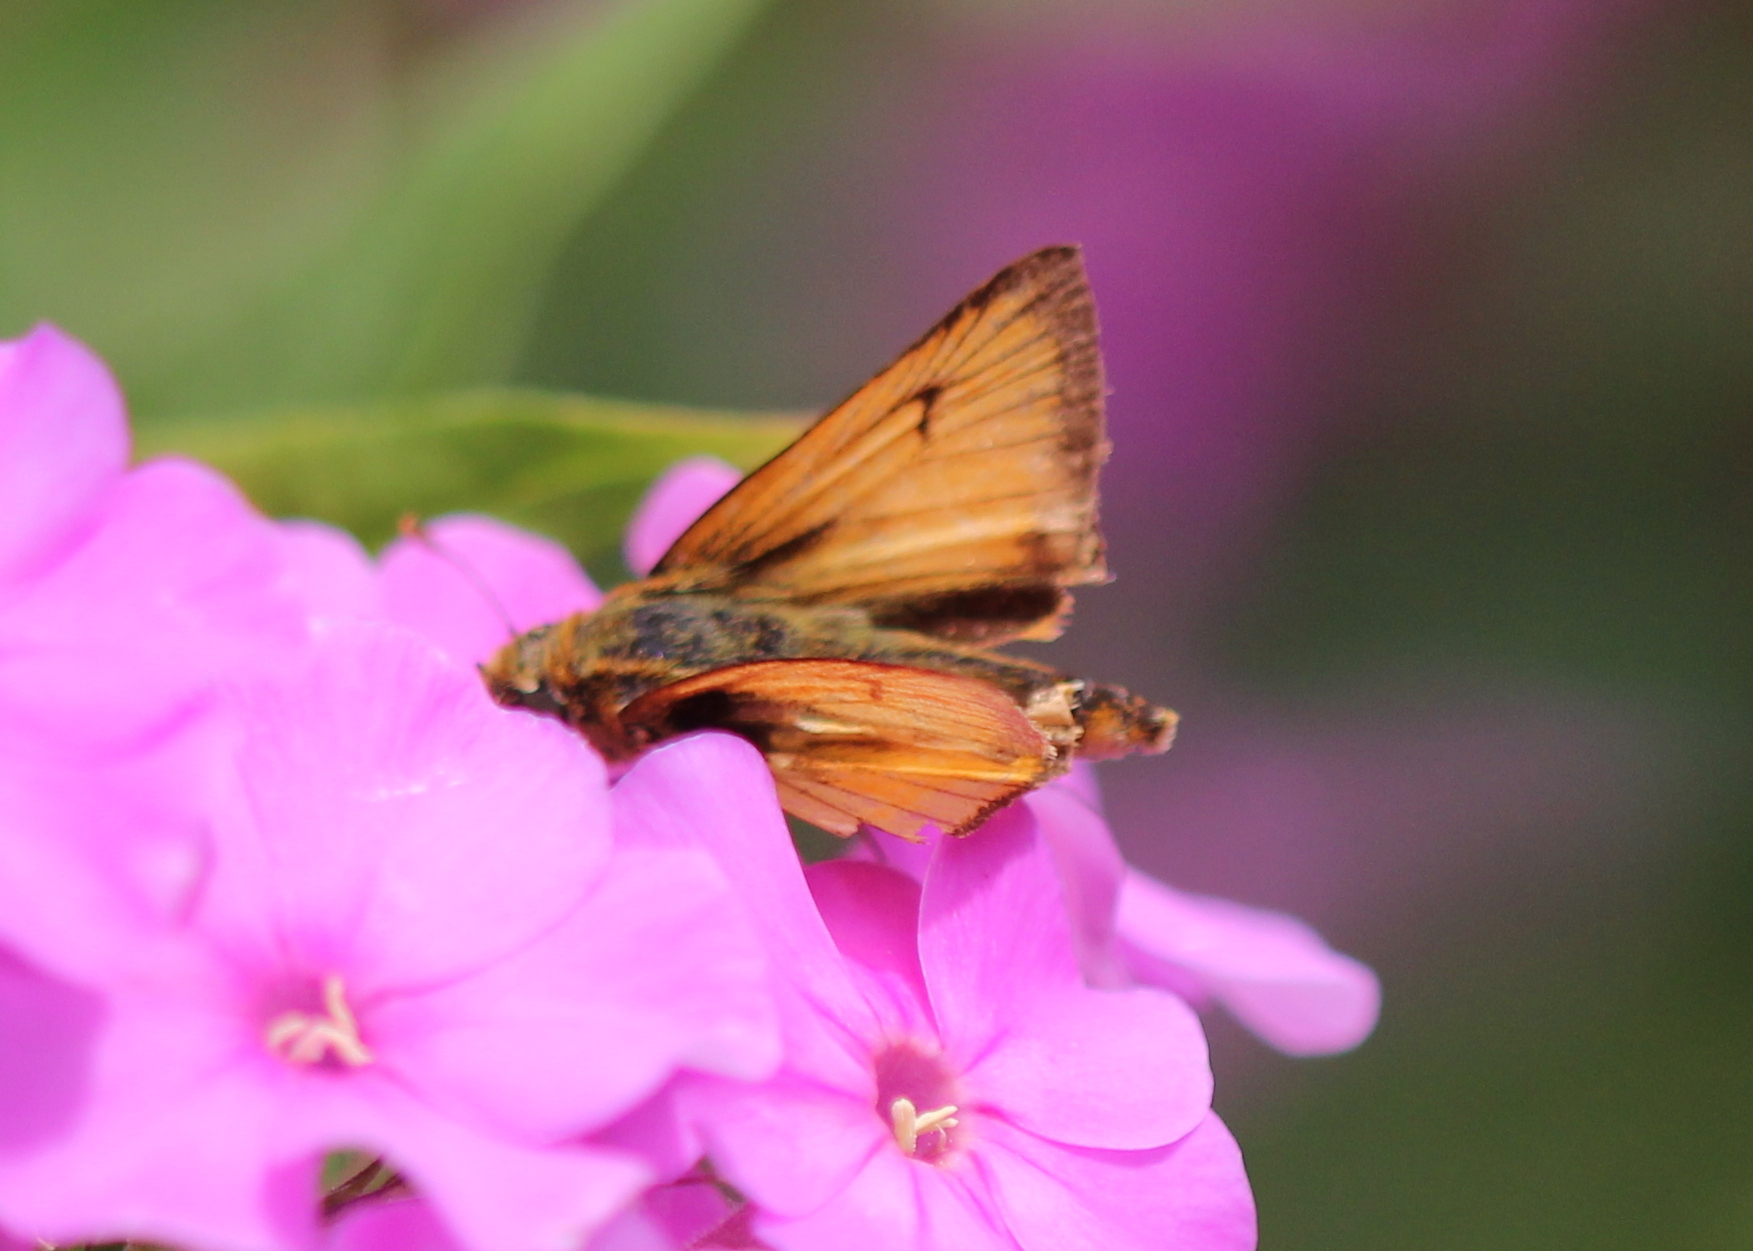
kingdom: Animalia
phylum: Arthropoda
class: Insecta
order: Lepidoptera
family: Hesperiidae
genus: Atrytone
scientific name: Atrytone delaware
